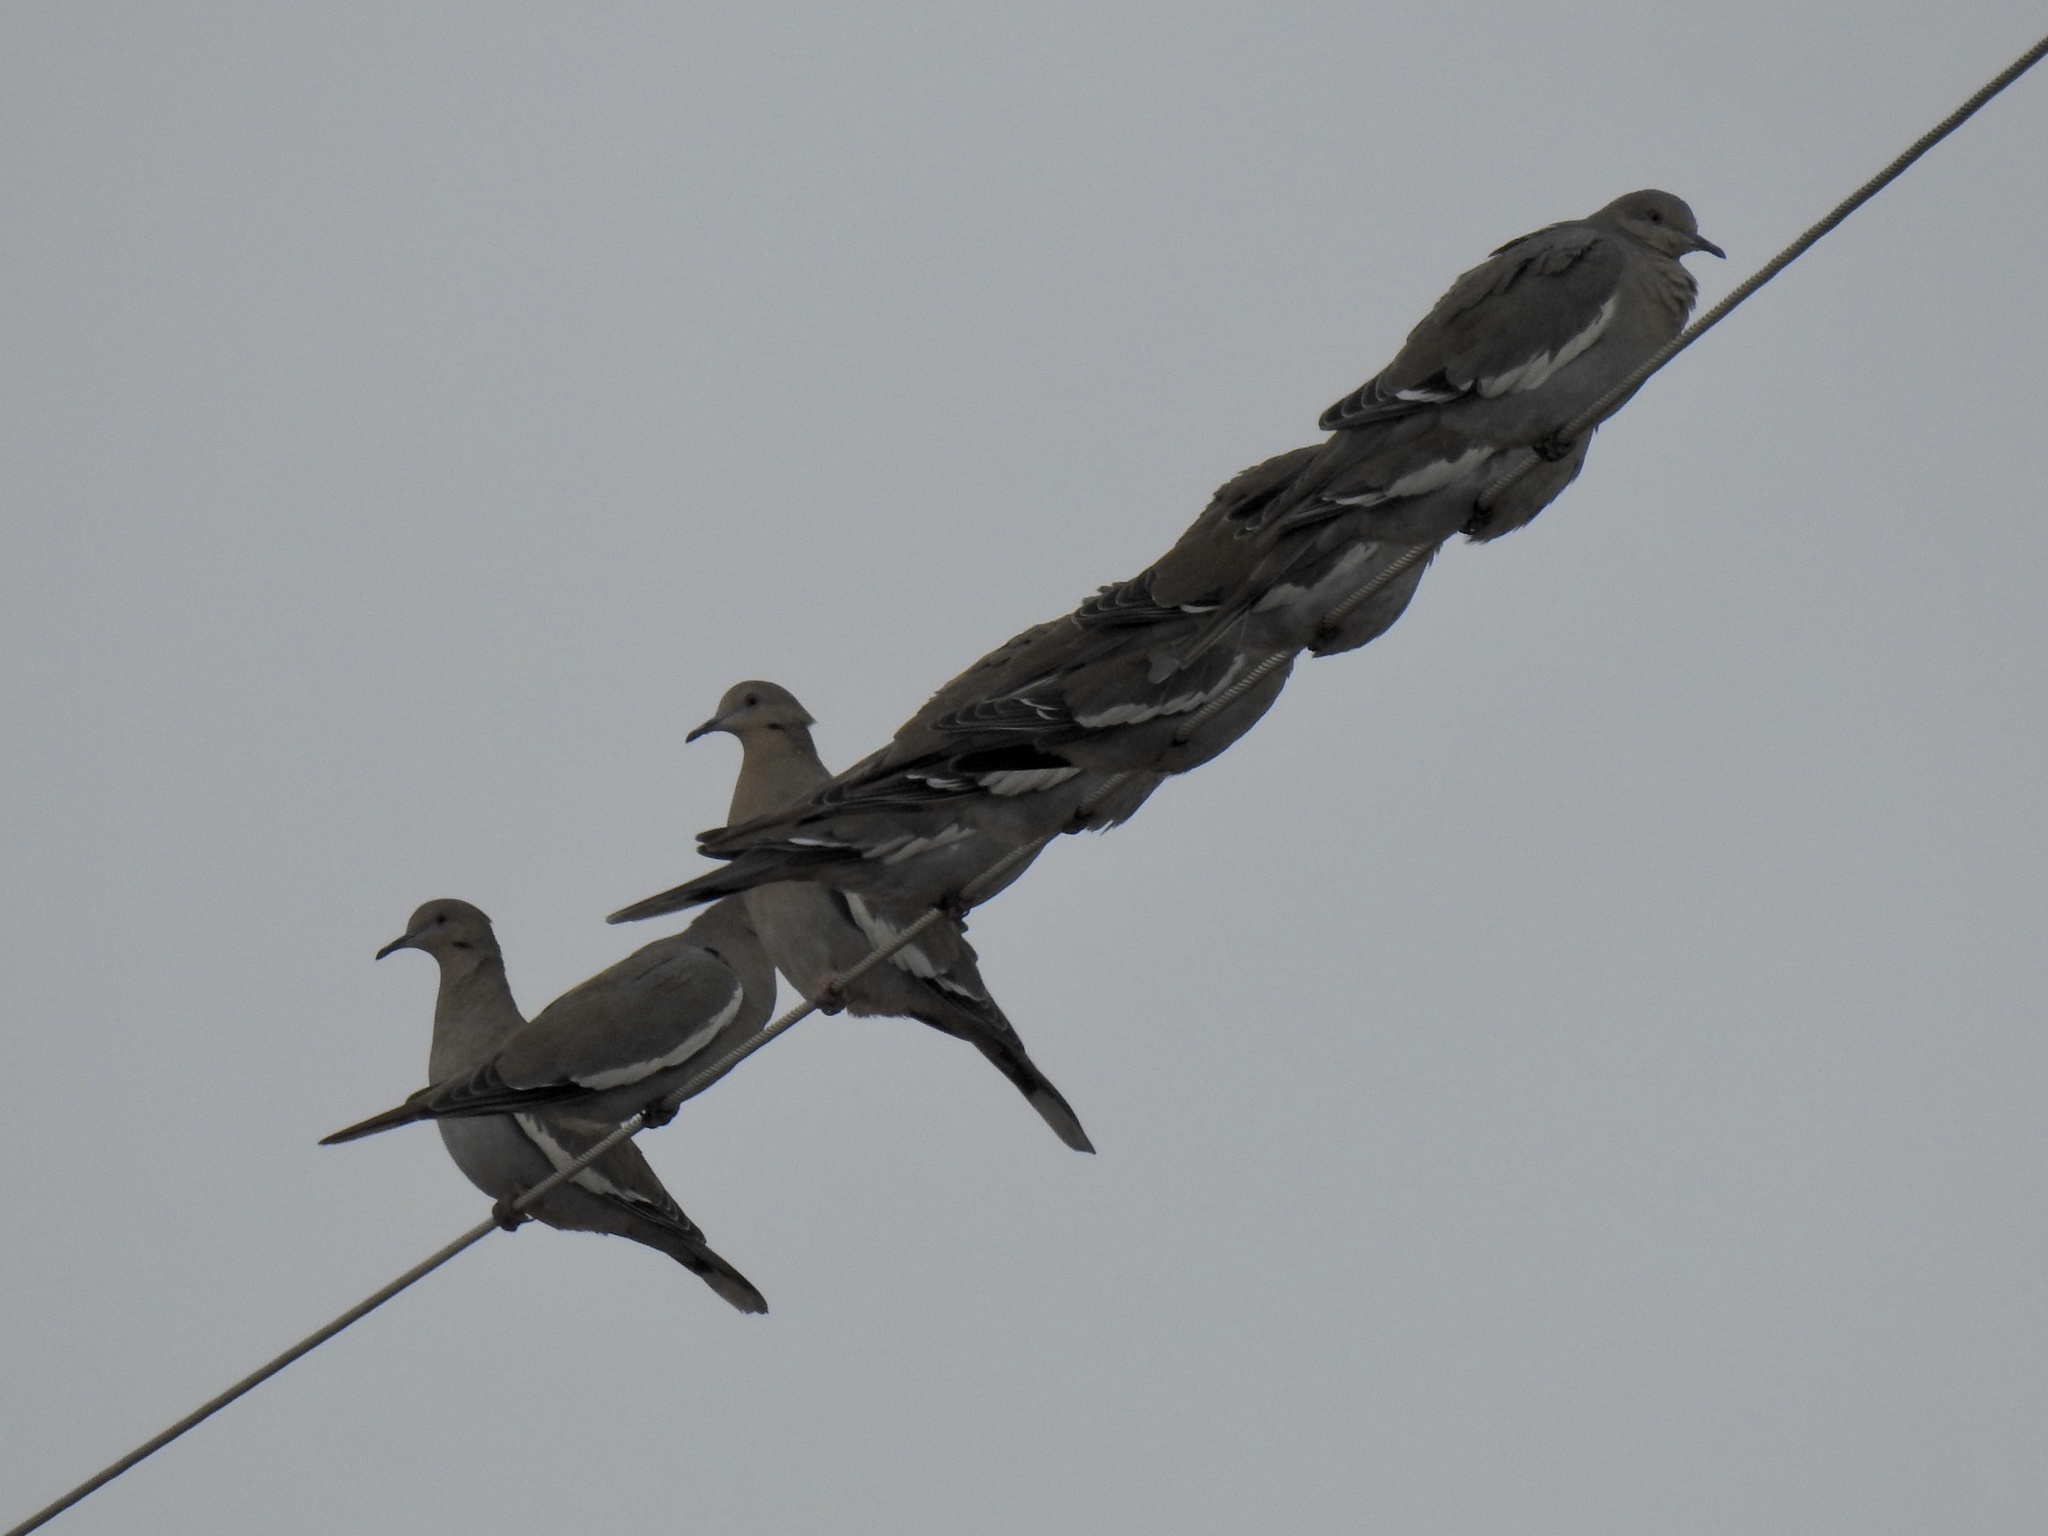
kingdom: Animalia
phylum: Chordata
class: Aves
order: Columbiformes
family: Columbidae
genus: Zenaida
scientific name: Zenaida asiatica
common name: White-winged dove
